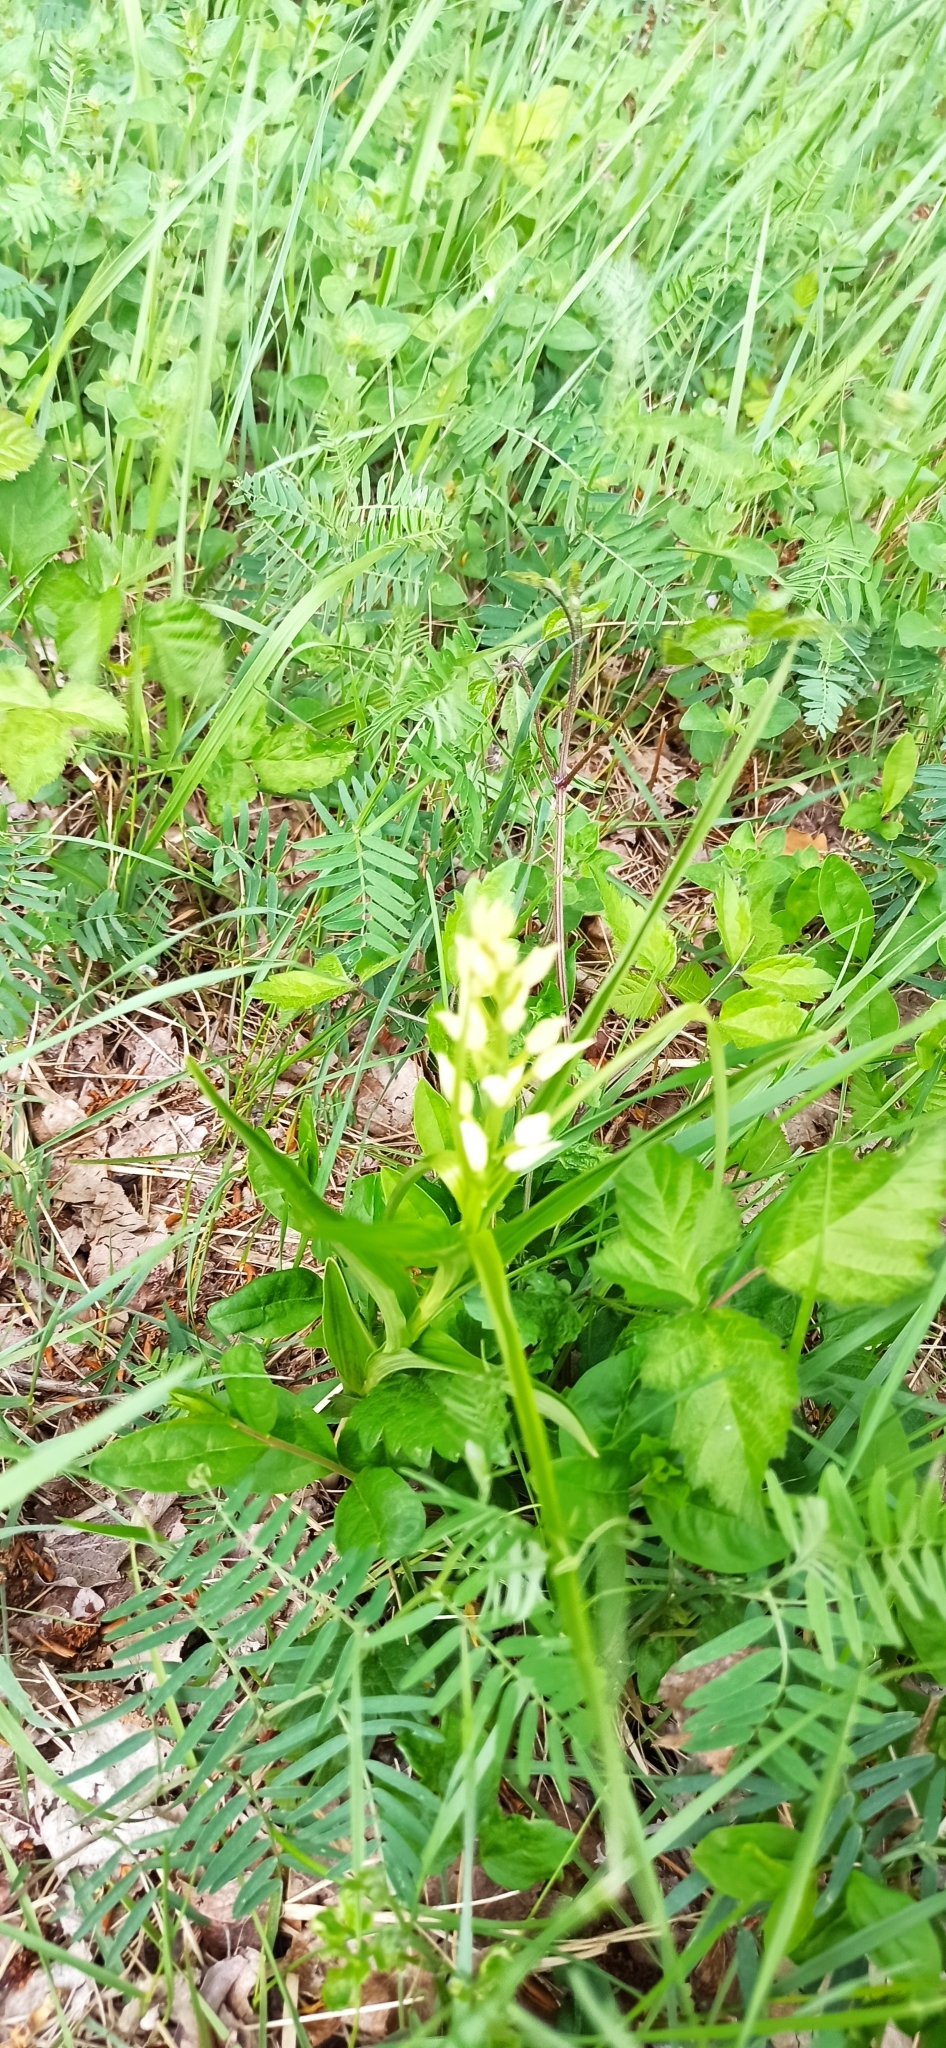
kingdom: Plantae
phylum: Tracheophyta
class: Liliopsida
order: Asparagales
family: Orchidaceae
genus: Cephalanthera
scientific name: Cephalanthera longifolia
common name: Narrow-leaved helleborine
